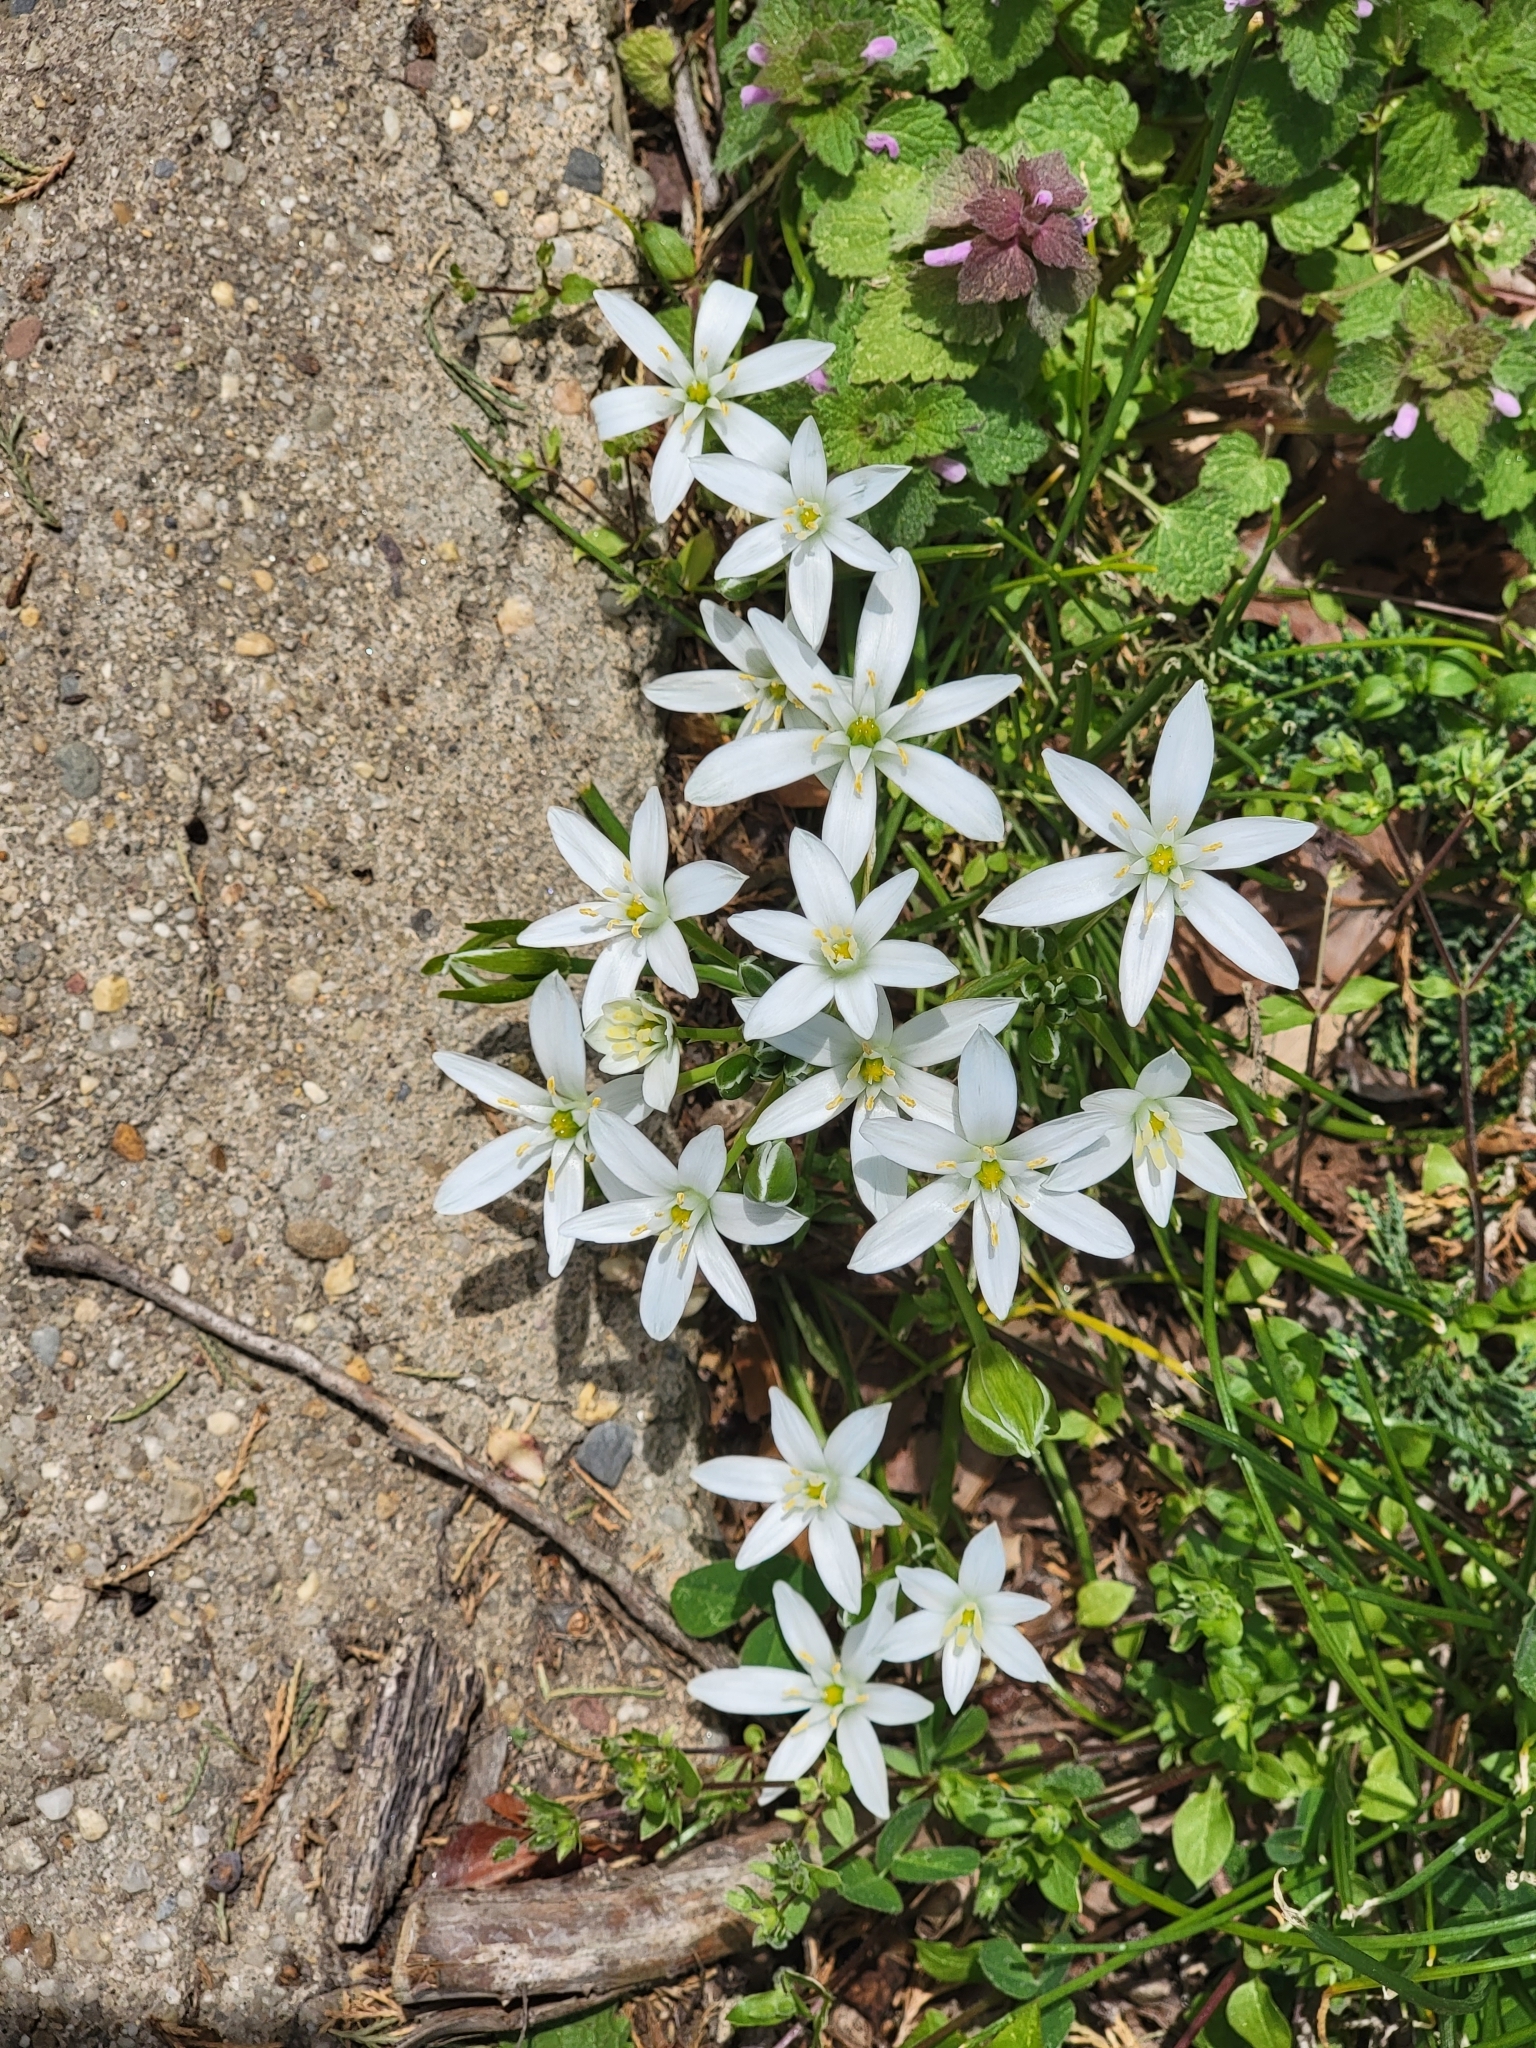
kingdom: Plantae
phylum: Tracheophyta
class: Liliopsida
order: Asparagales
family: Asparagaceae
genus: Ornithogalum
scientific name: Ornithogalum umbellatum
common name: Garden star-of-bethlehem
